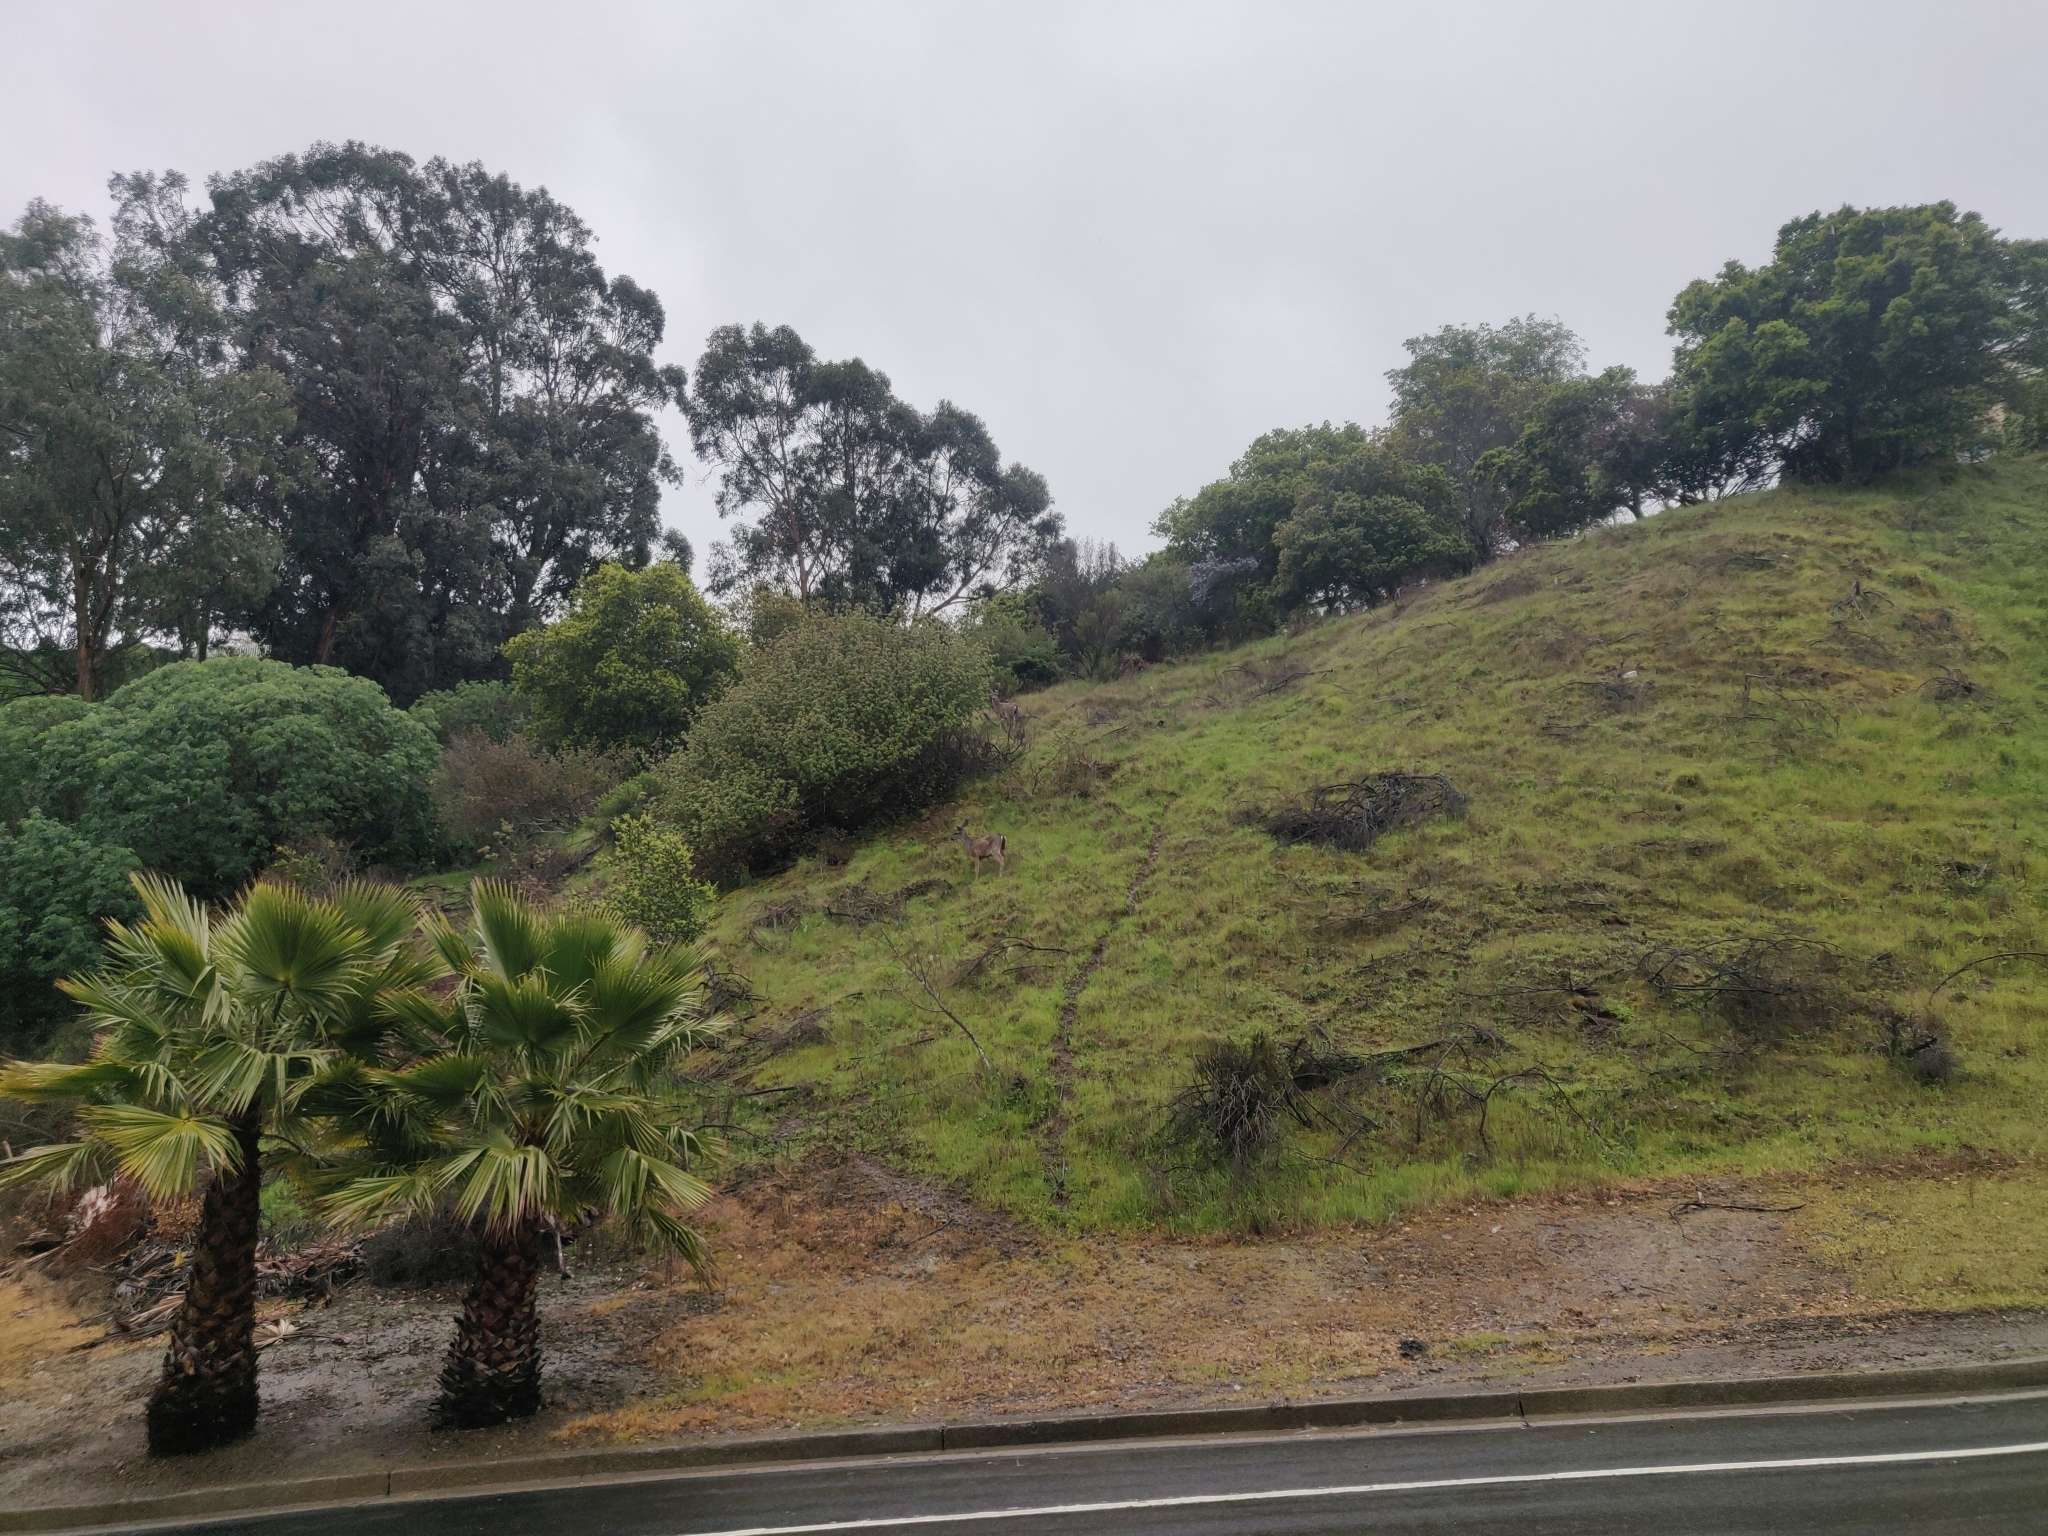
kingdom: Animalia
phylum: Chordata
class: Mammalia
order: Artiodactyla
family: Cervidae
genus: Odocoileus
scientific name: Odocoileus hemionus
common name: Mule deer
